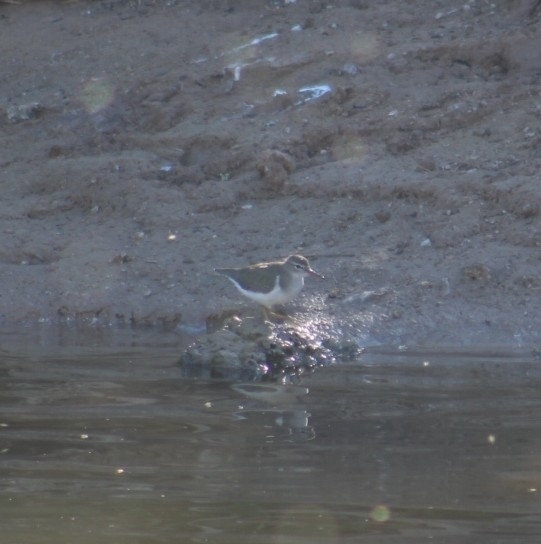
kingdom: Animalia
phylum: Chordata
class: Aves
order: Charadriiformes
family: Scolopacidae
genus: Actitis
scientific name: Actitis macularius
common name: Spotted sandpiper
